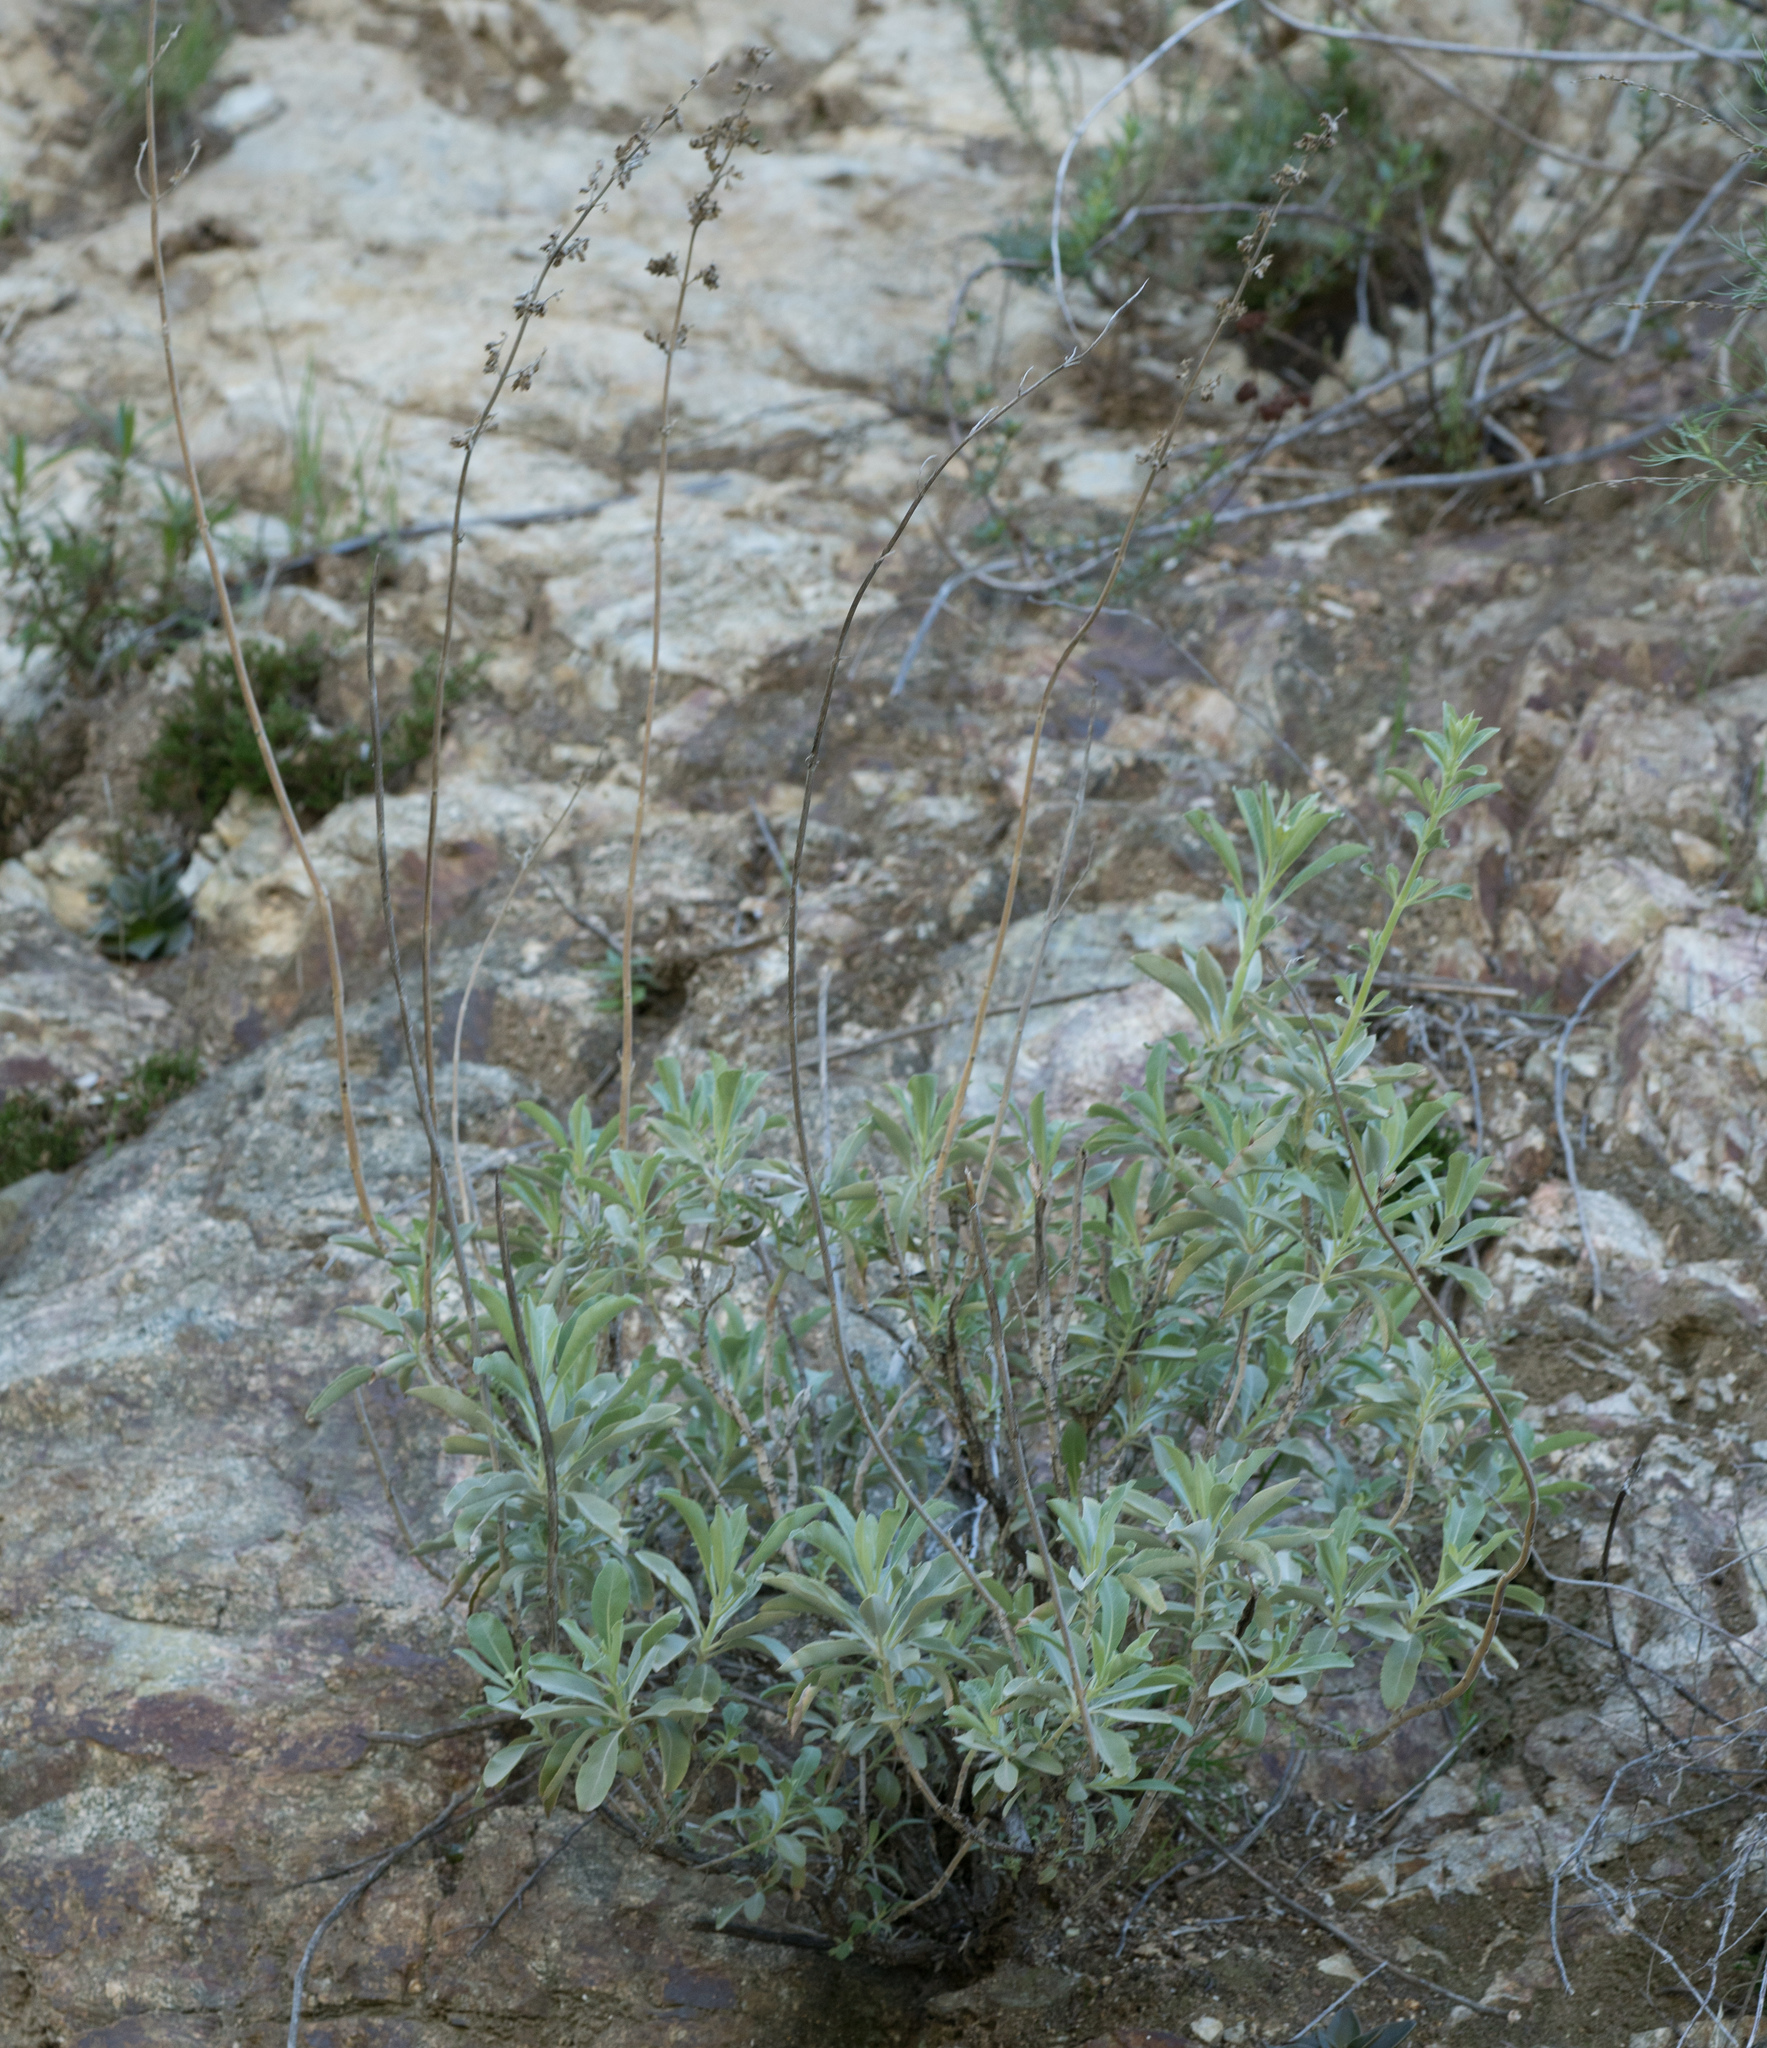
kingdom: Plantae
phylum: Tracheophyta
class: Magnoliopsida
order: Lamiales
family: Lamiaceae
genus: Salvia
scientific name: Salvia apiana
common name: White sage
